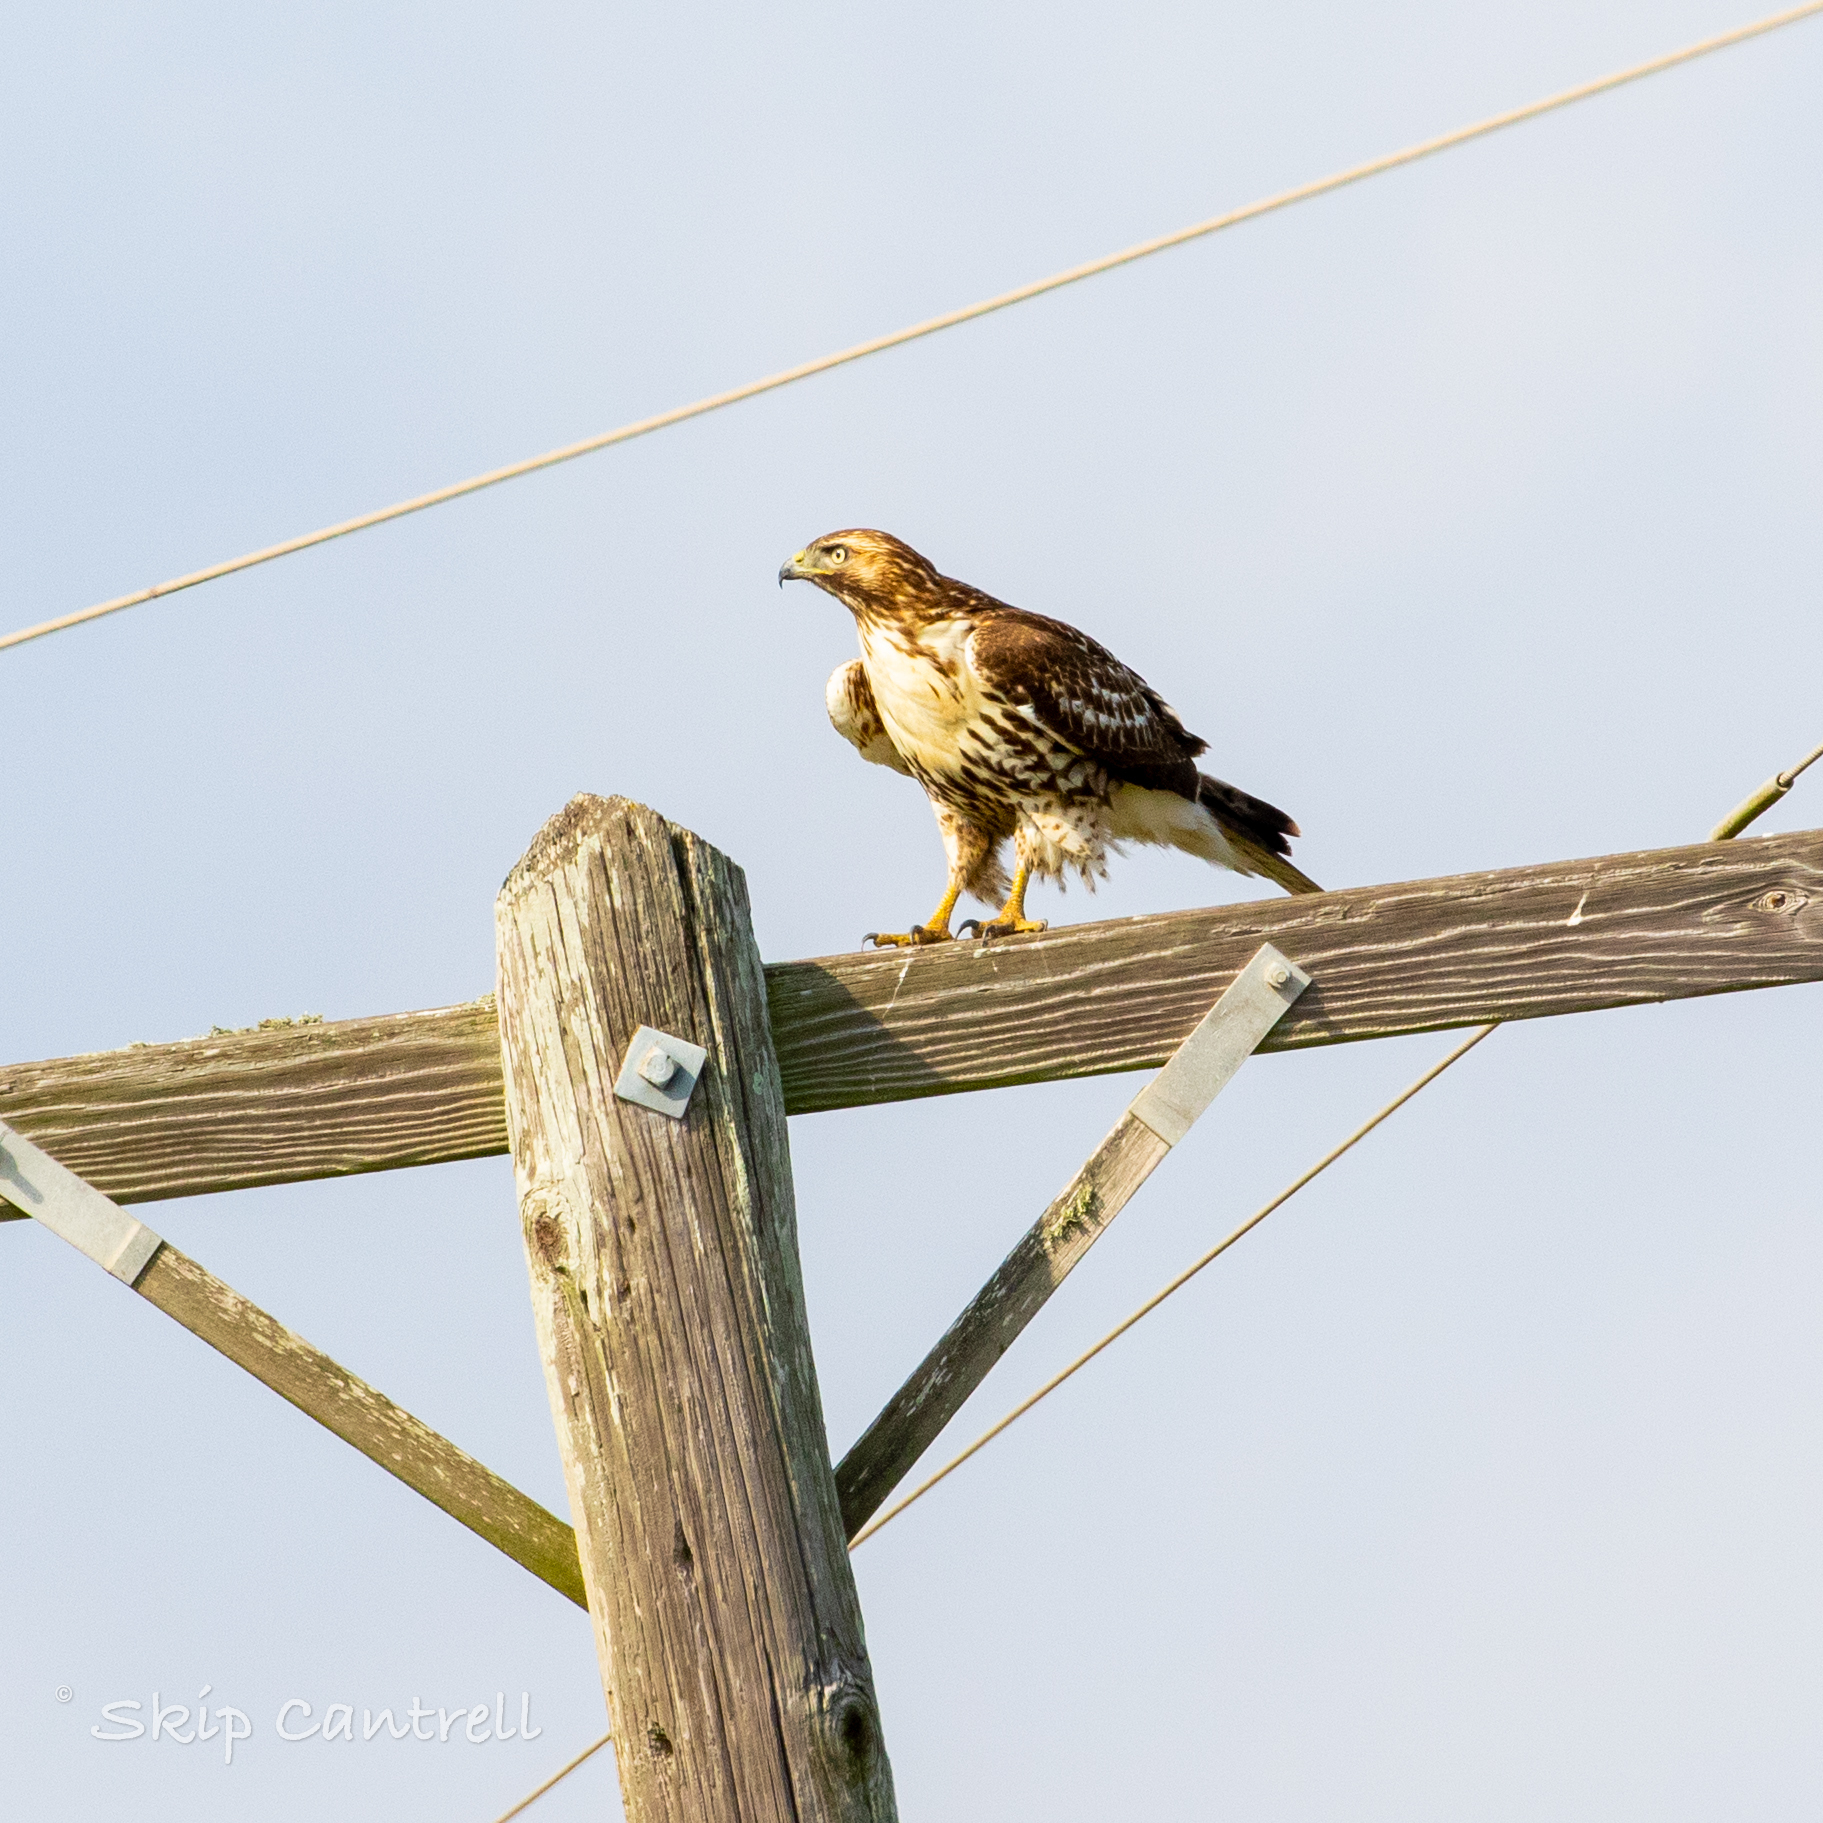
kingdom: Animalia
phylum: Chordata
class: Aves
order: Accipitriformes
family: Accipitridae
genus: Buteo
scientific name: Buteo jamaicensis
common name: Red-tailed hawk
